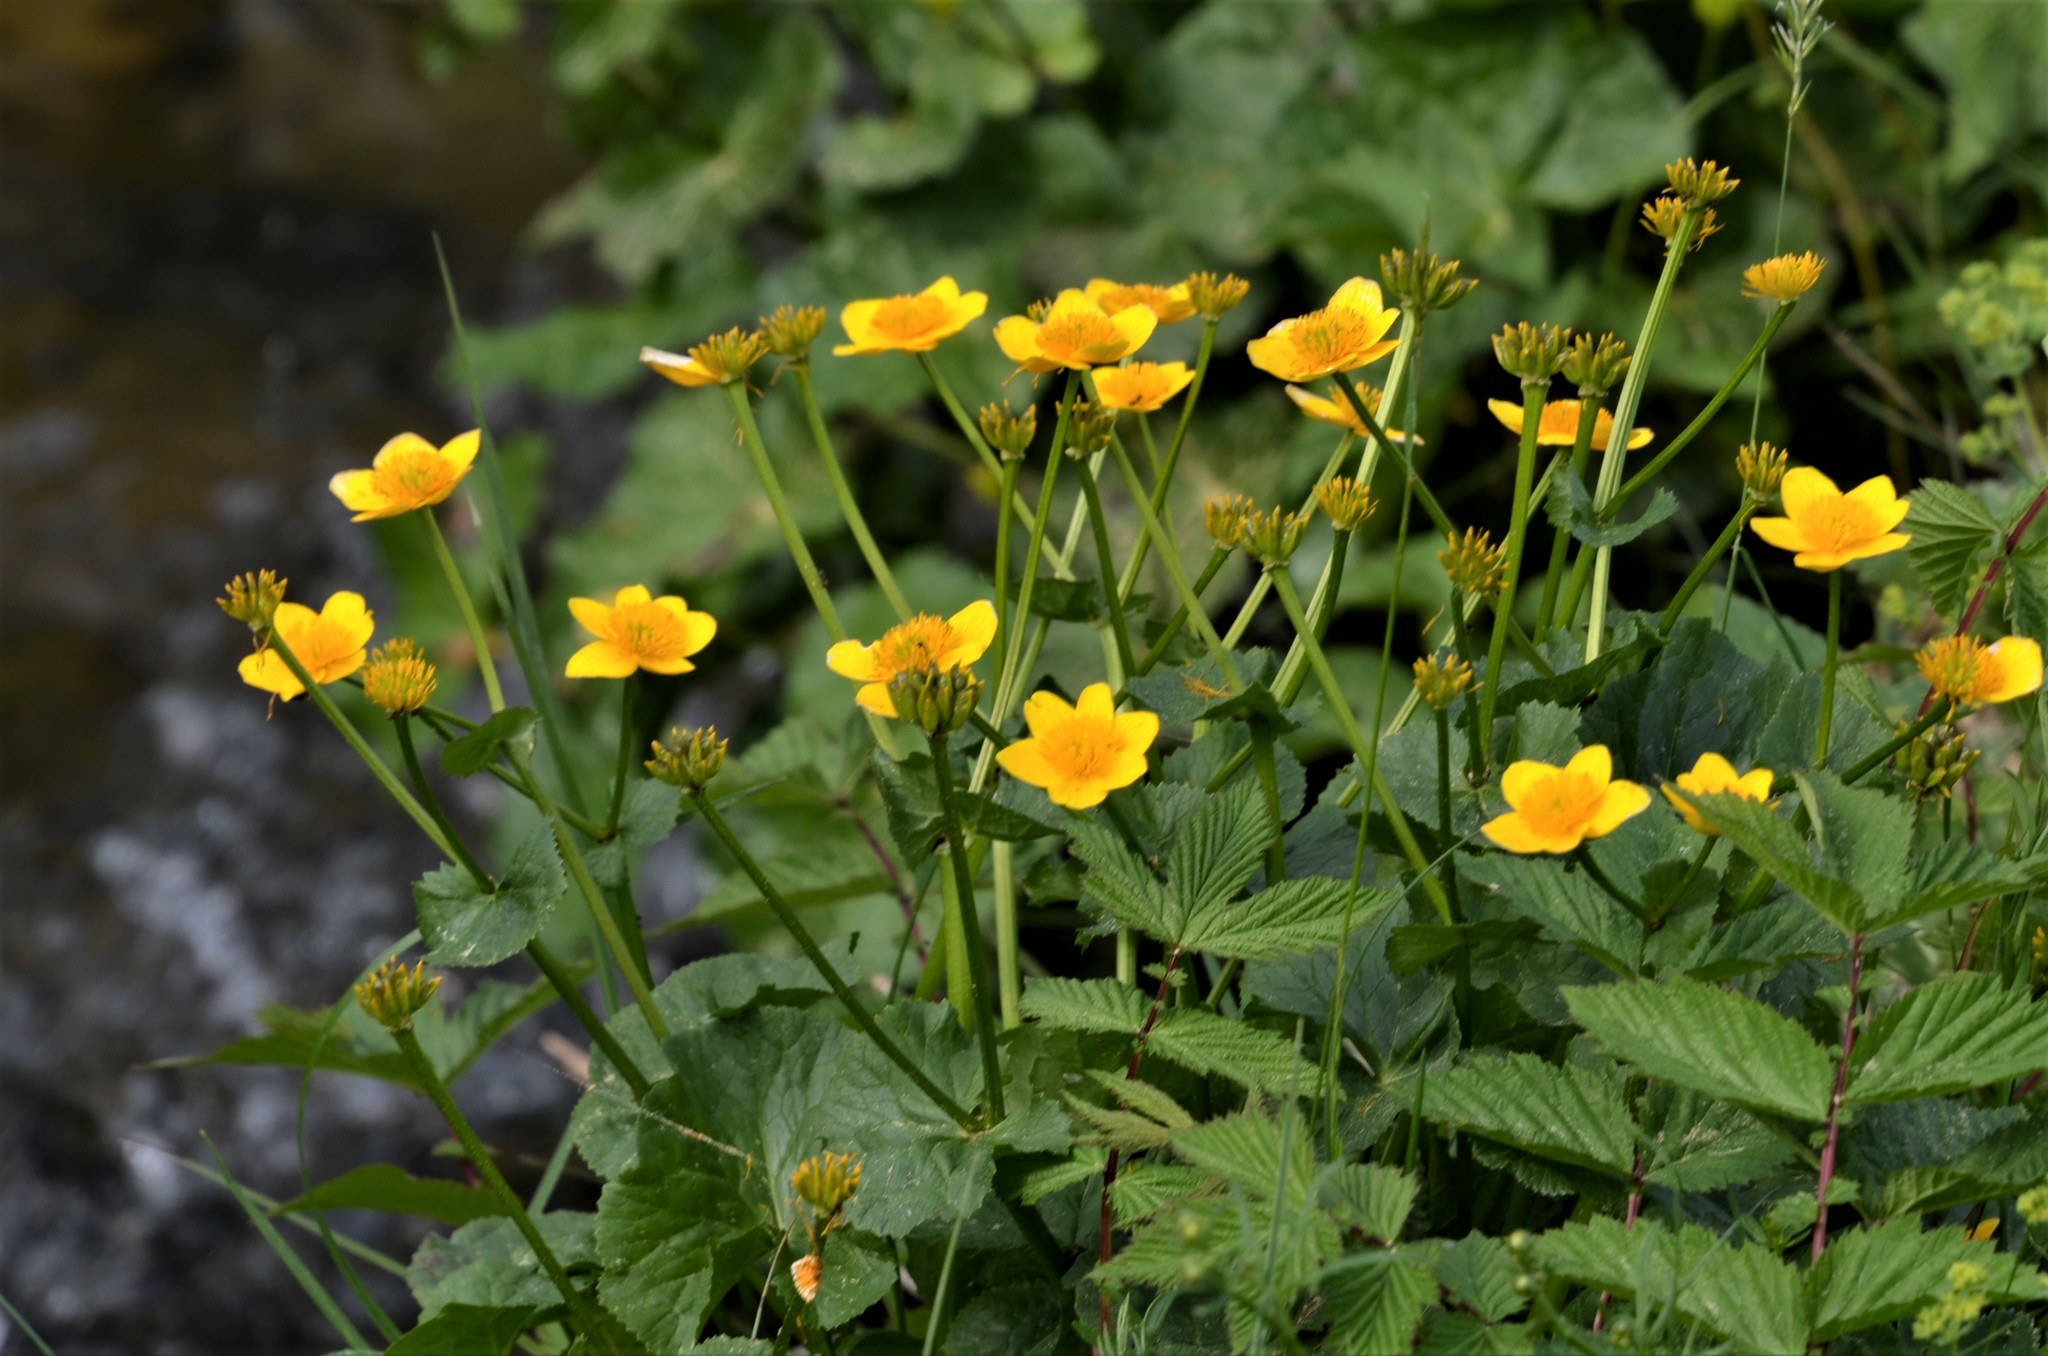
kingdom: Plantae
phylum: Tracheophyta
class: Magnoliopsida
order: Ranunculales
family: Ranunculaceae
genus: Caltha
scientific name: Caltha palustris
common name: Marsh marigold
